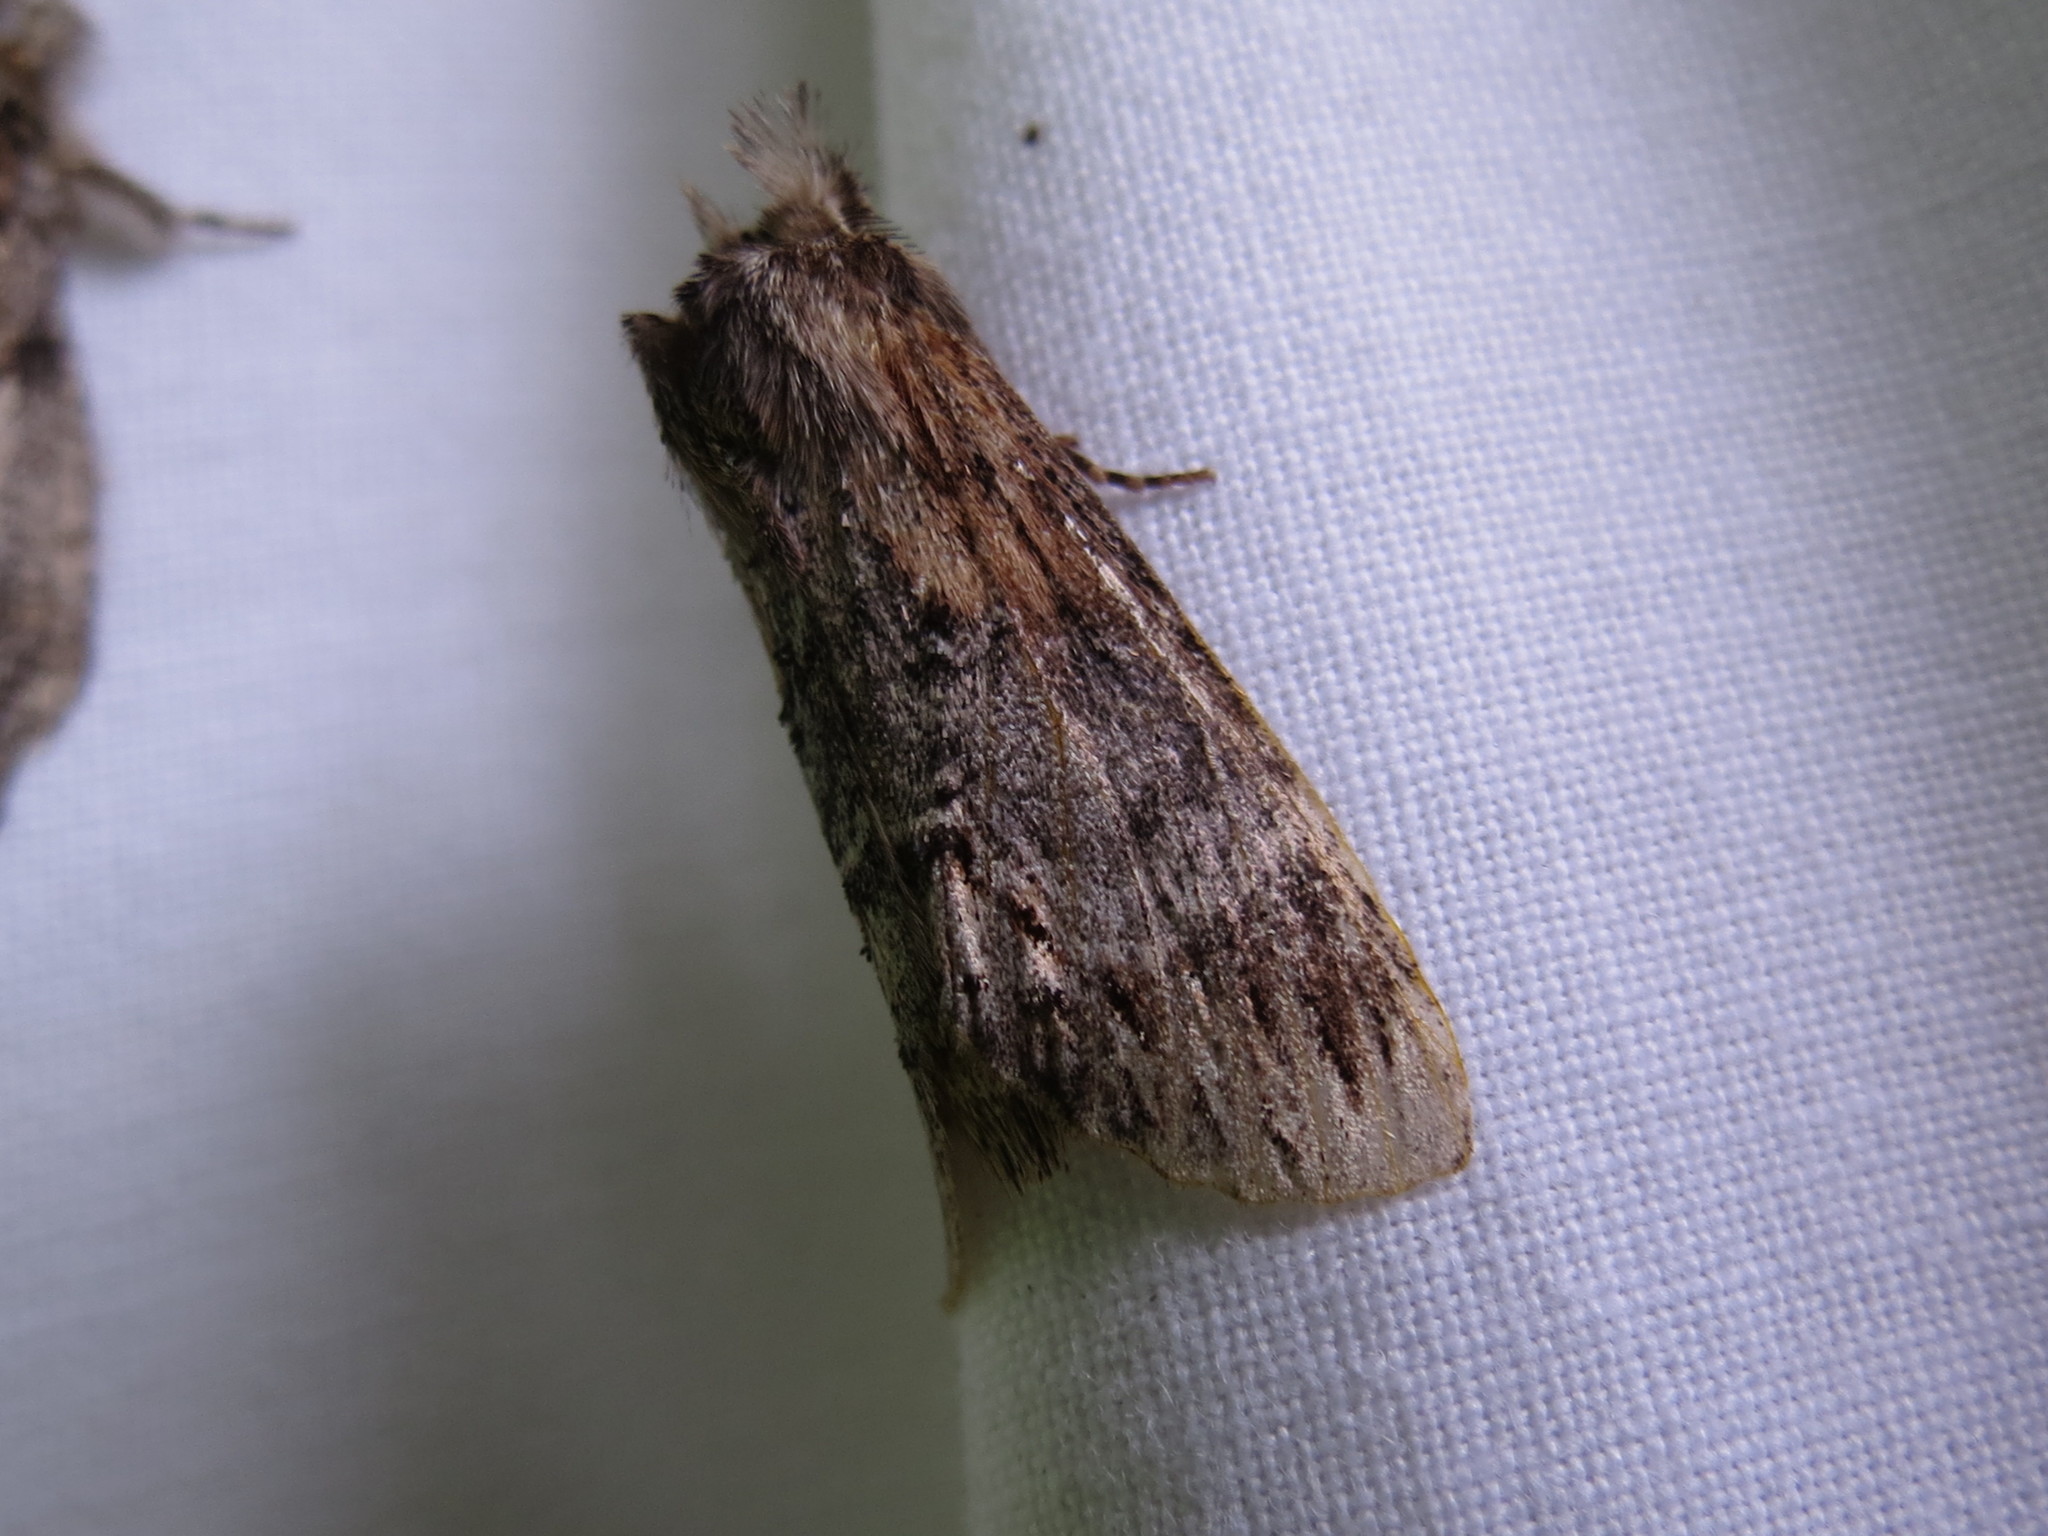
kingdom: Animalia
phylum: Arthropoda
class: Insecta
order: Lepidoptera
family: Notodontidae
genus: Dasylophia
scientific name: Dasylophia thyatiroides
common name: Gray-patched prominent
